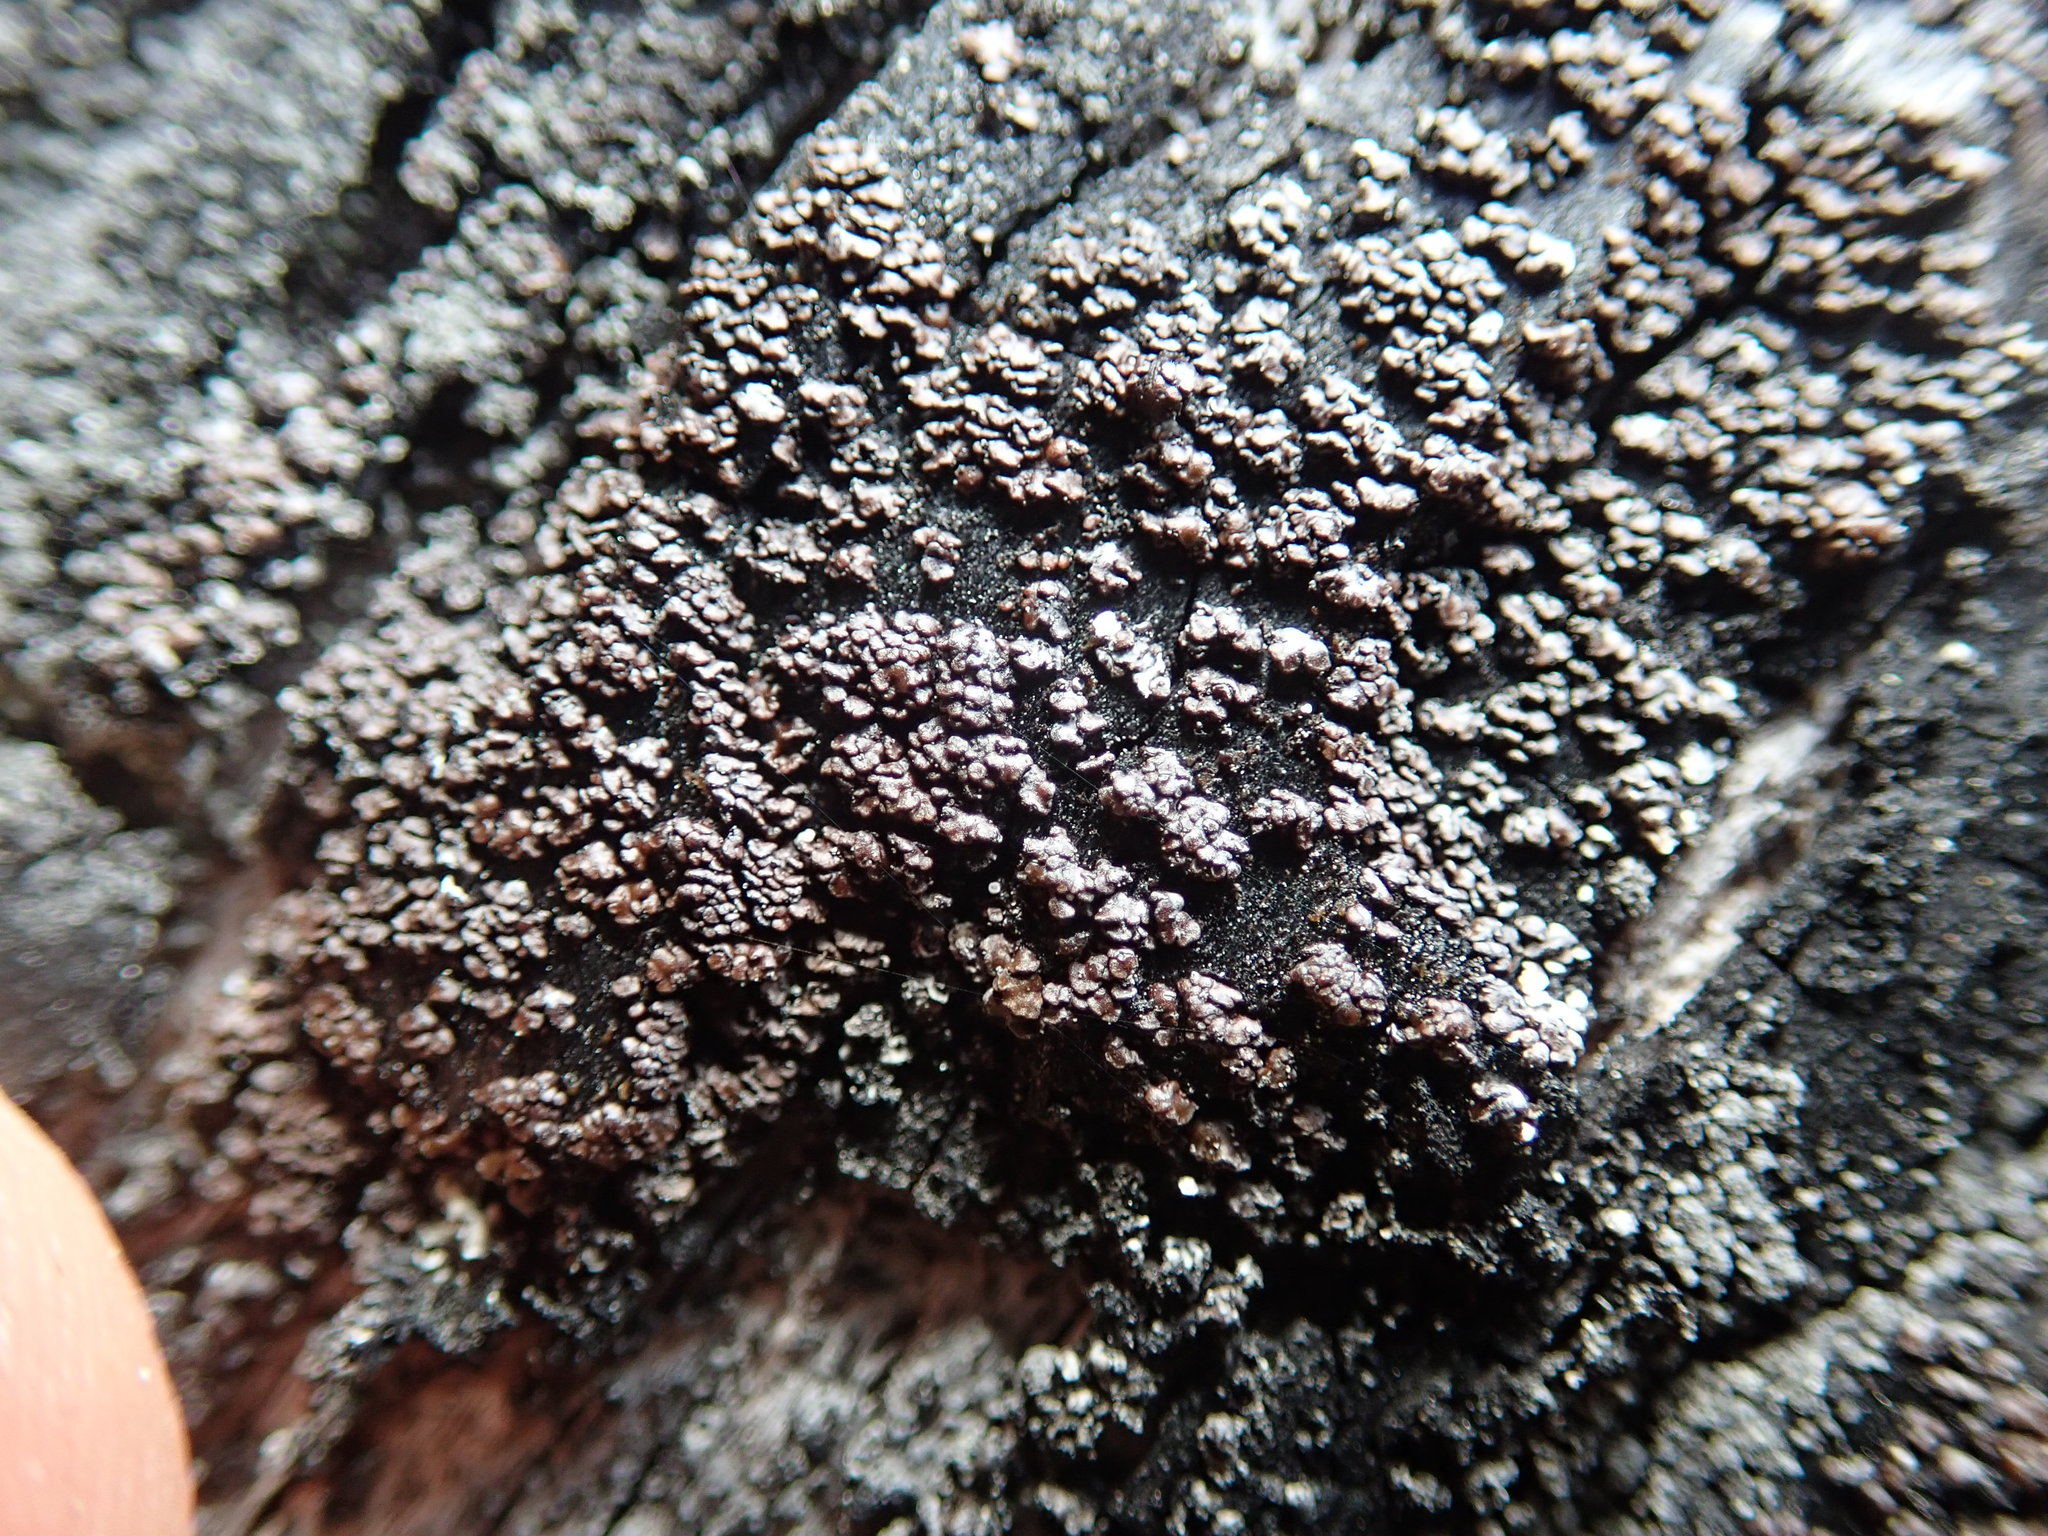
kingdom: Fungi
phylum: Ascomycota
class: Lecanoromycetes
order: Umbilicariales
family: Ophioparmaceae
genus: Hypocenomyce
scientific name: Hypocenomyce scalaris
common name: Common clam lichen
